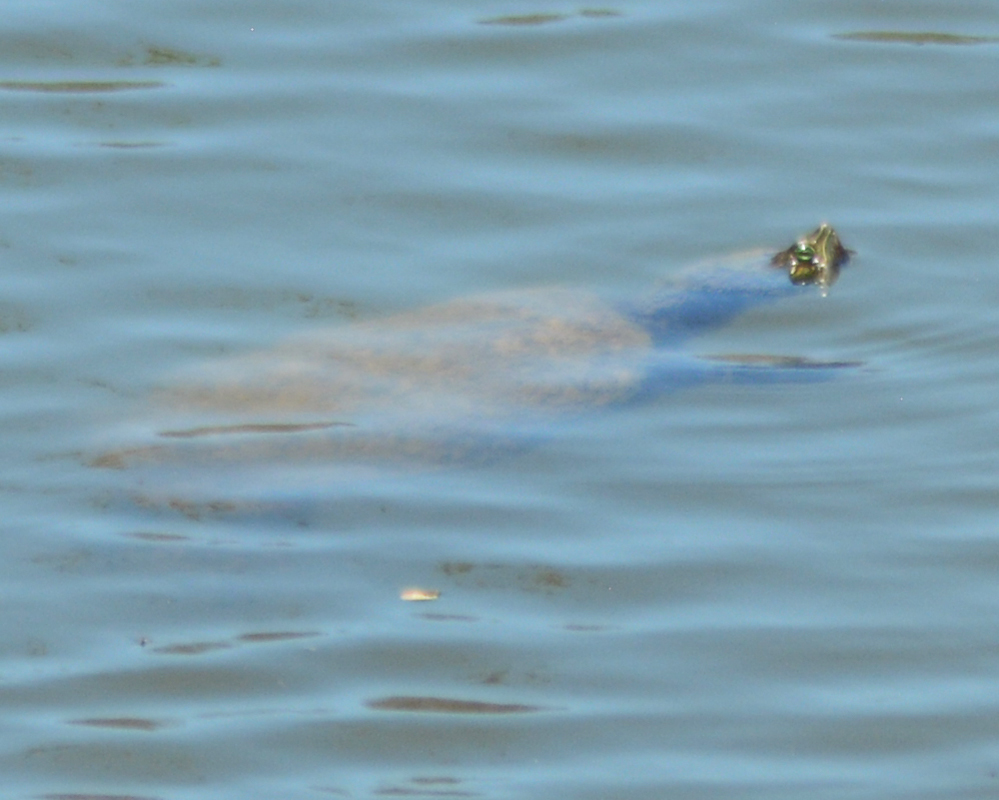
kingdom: Animalia
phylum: Chordata
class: Testudines
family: Emydidae
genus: Trachemys
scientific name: Trachemys ornata
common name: Ornate slider
